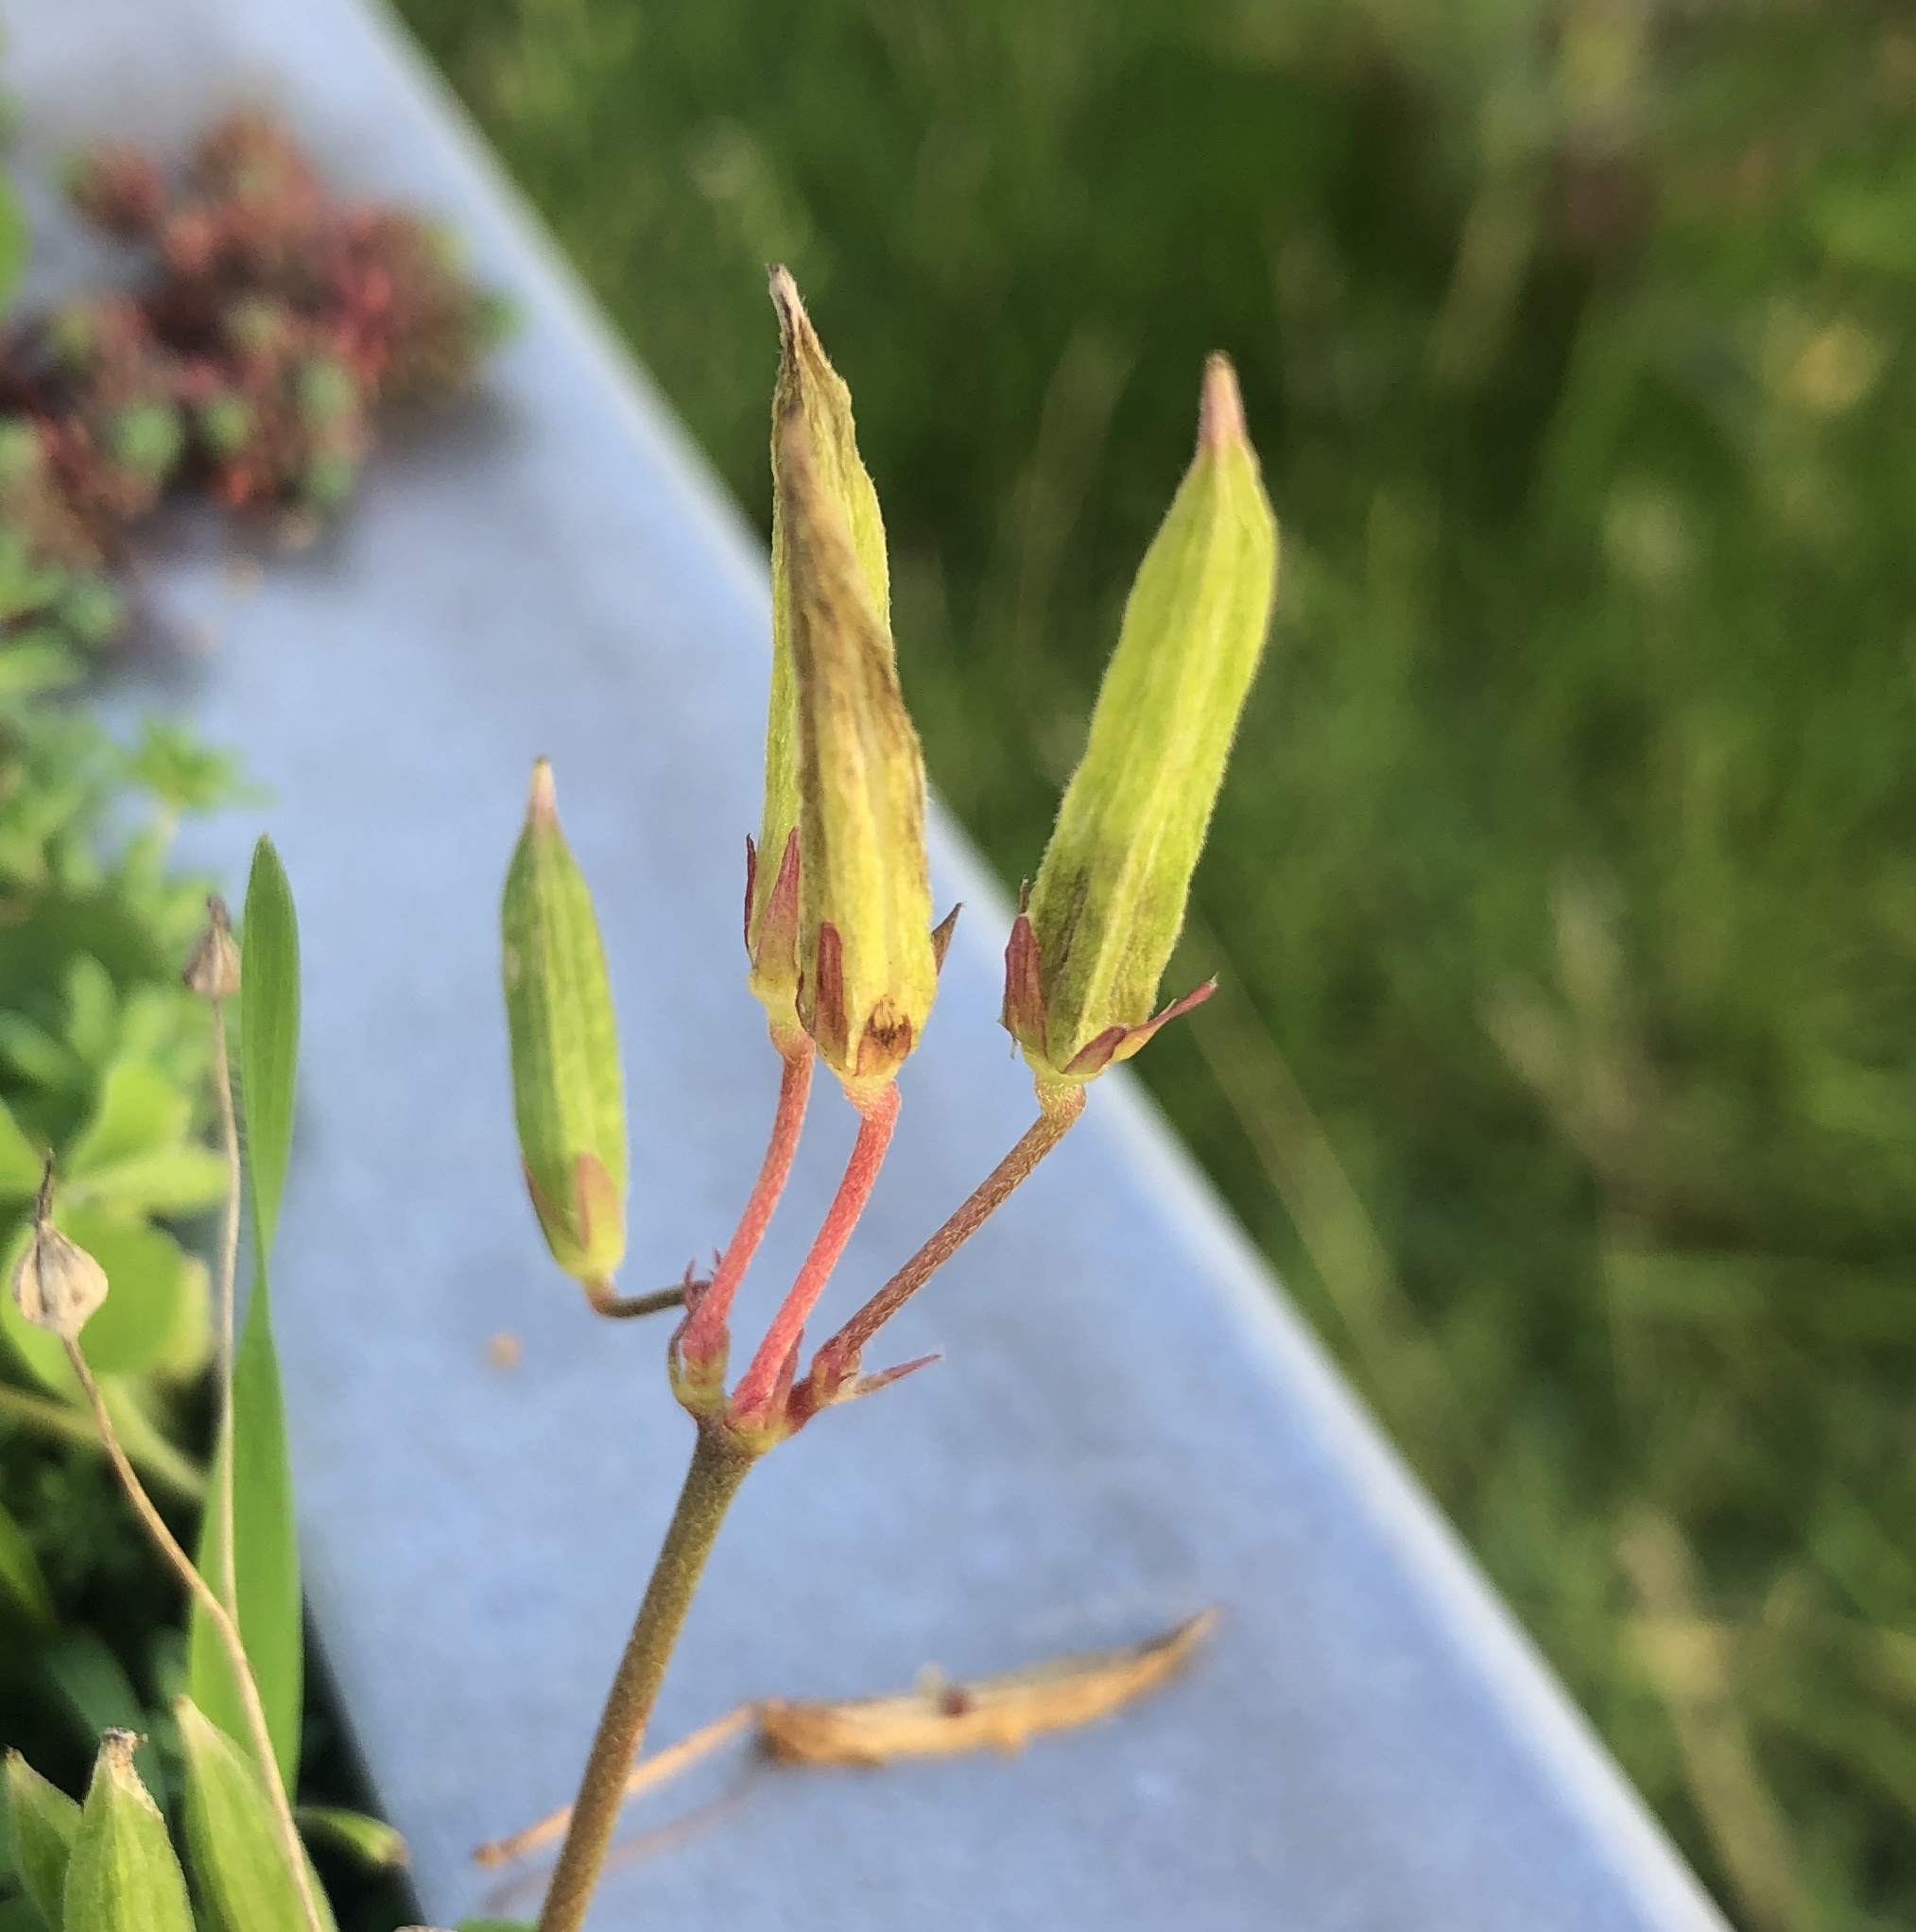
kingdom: Plantae
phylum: Tracheophyta
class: Magnoliopsida
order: Oxalidales
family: Oxalidaceae
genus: Oxalis
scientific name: Oxalis corniculata
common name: Procumbent yellow-sorrel
